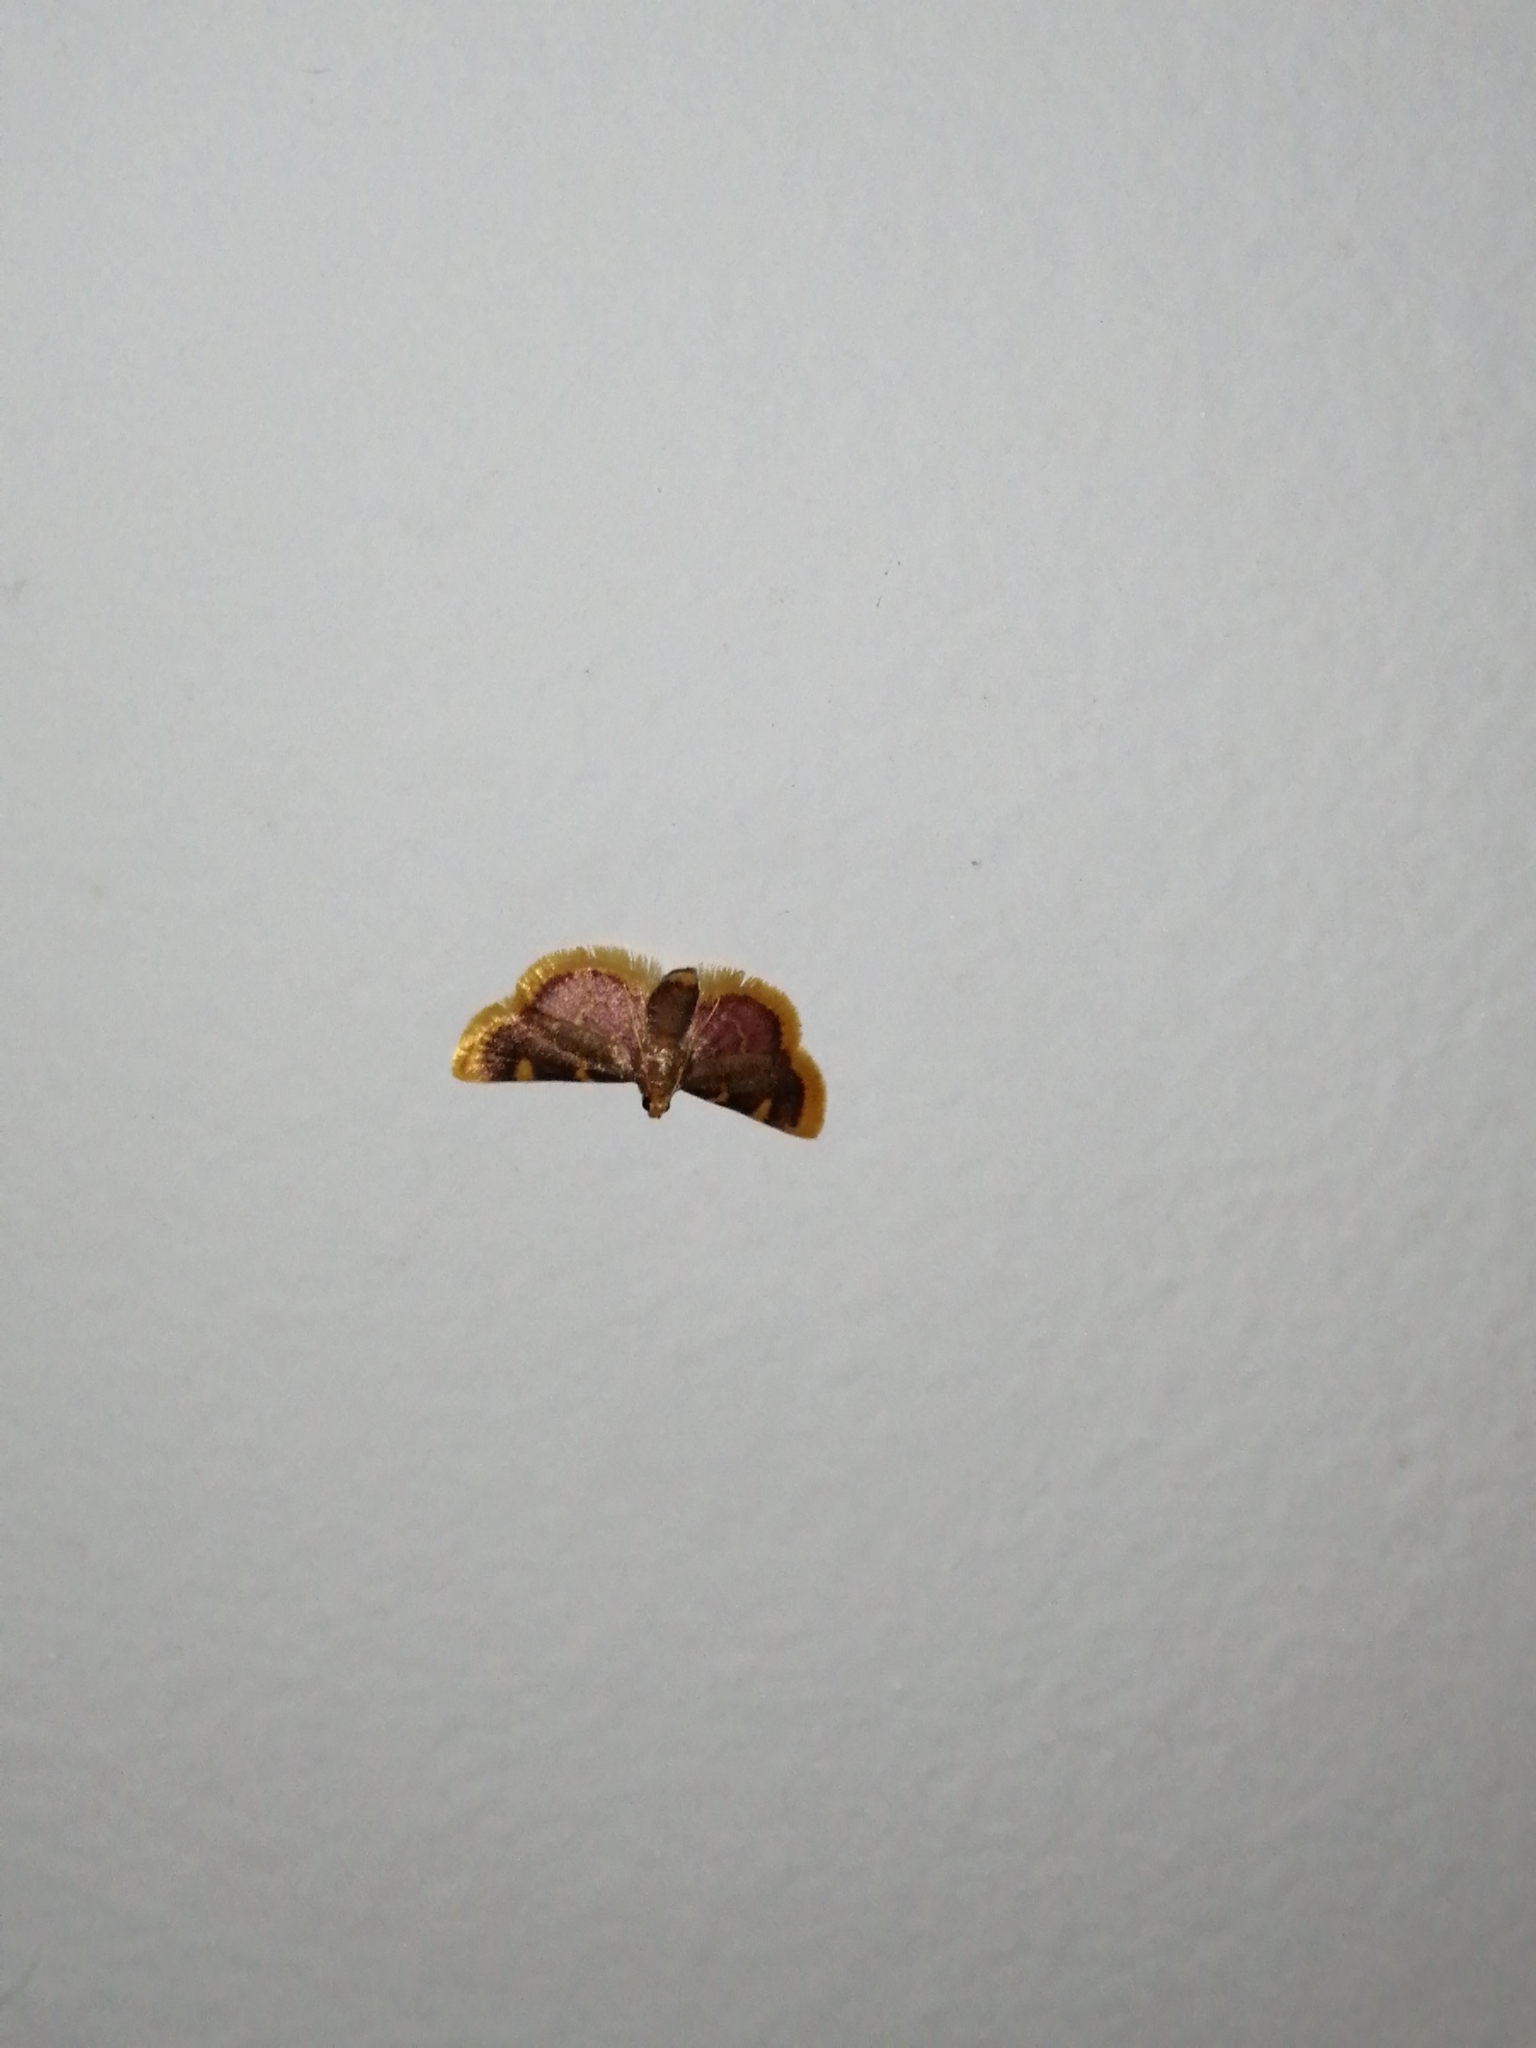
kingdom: Animalia
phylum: Arthropoda
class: Insecta
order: Lepidoptera
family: Pyralidae
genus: Hypsopygia
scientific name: Hypsopygia costalis
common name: Gold triangle
